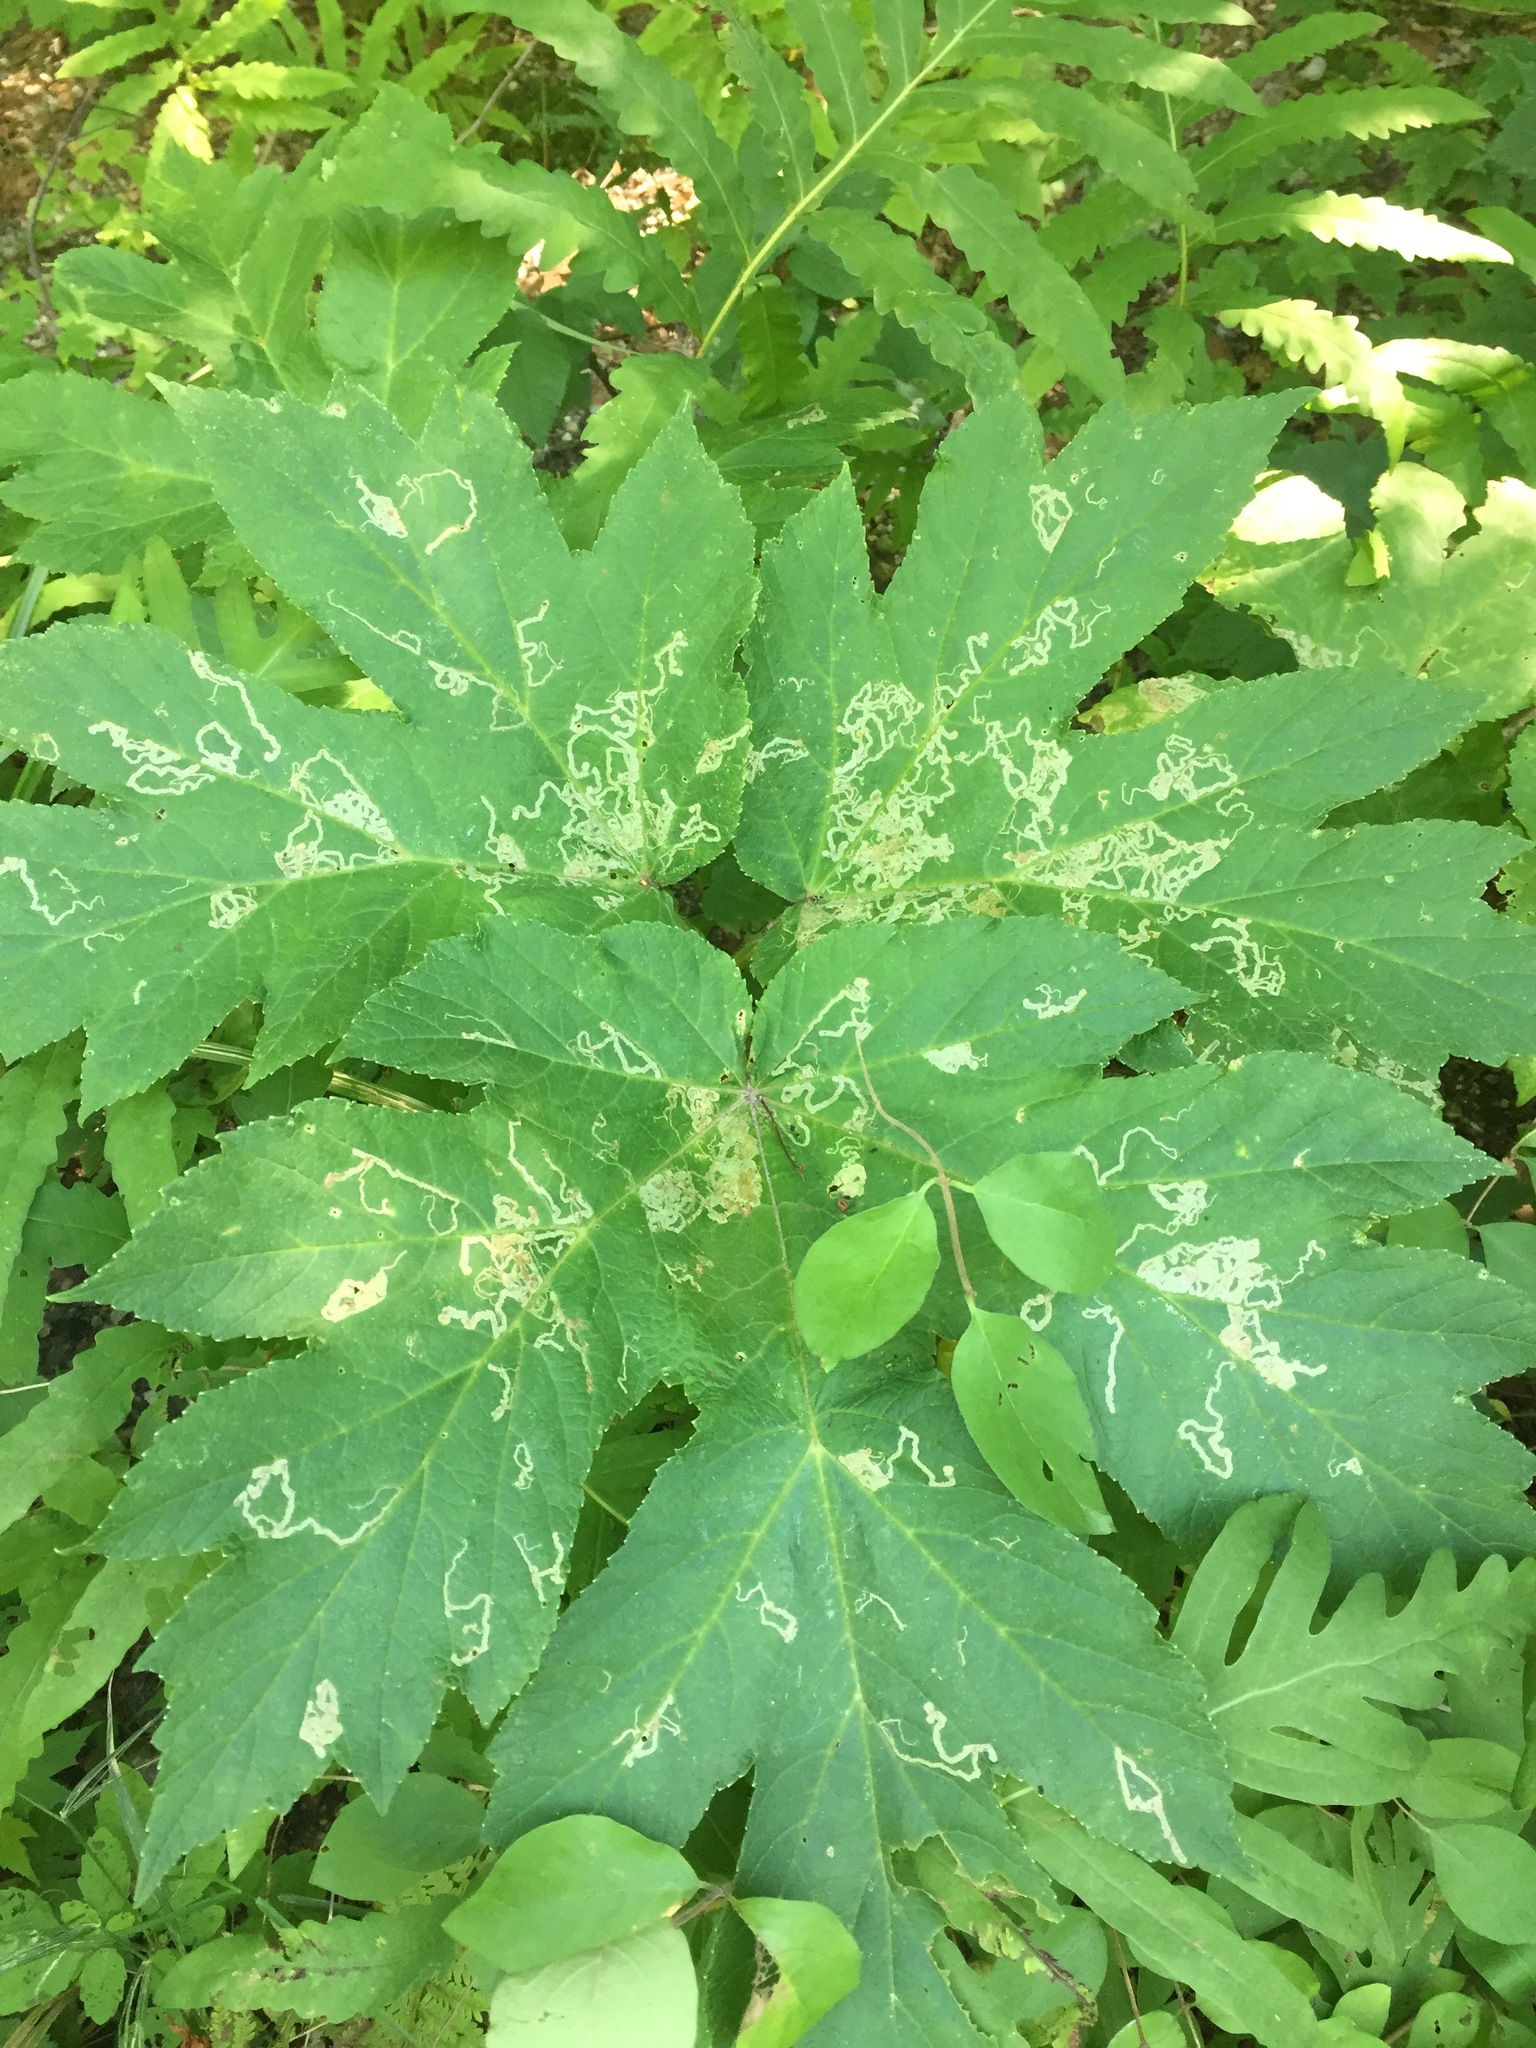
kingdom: Plantae
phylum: Tracheophyta
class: Magnoliopsida
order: Apiales
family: Apiaceae
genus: Heracleum
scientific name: Heracleum maximum
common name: American cow parsnip
